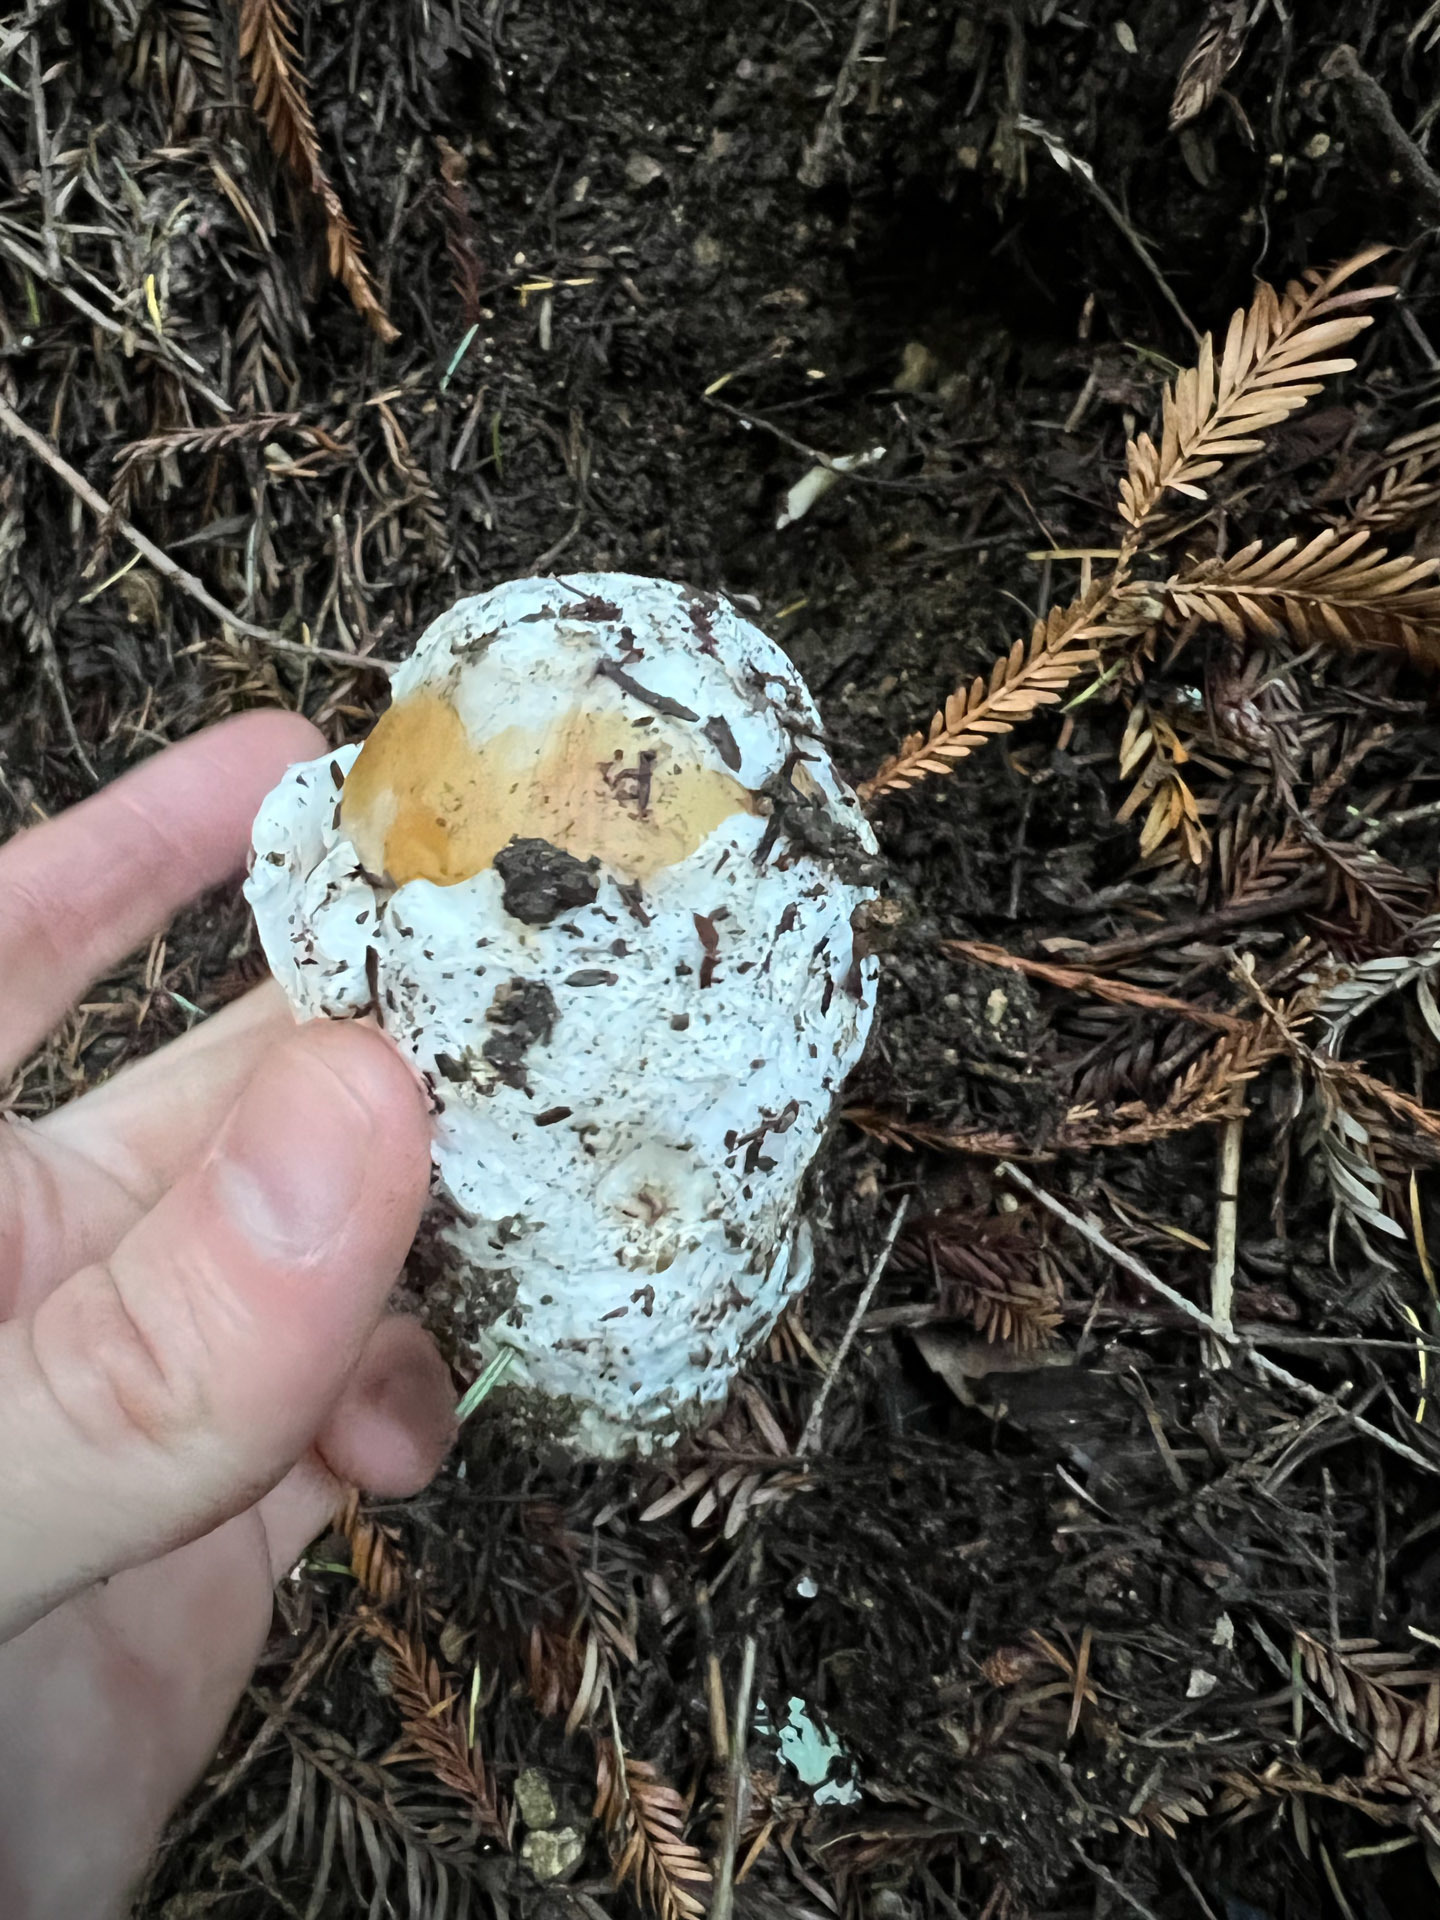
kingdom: Fungi
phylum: Basidiomycota
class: Agaricomycetes
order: Agaricales
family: Amanitaceae
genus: Amanita
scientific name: Amanita calyptroderma
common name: Coccora
